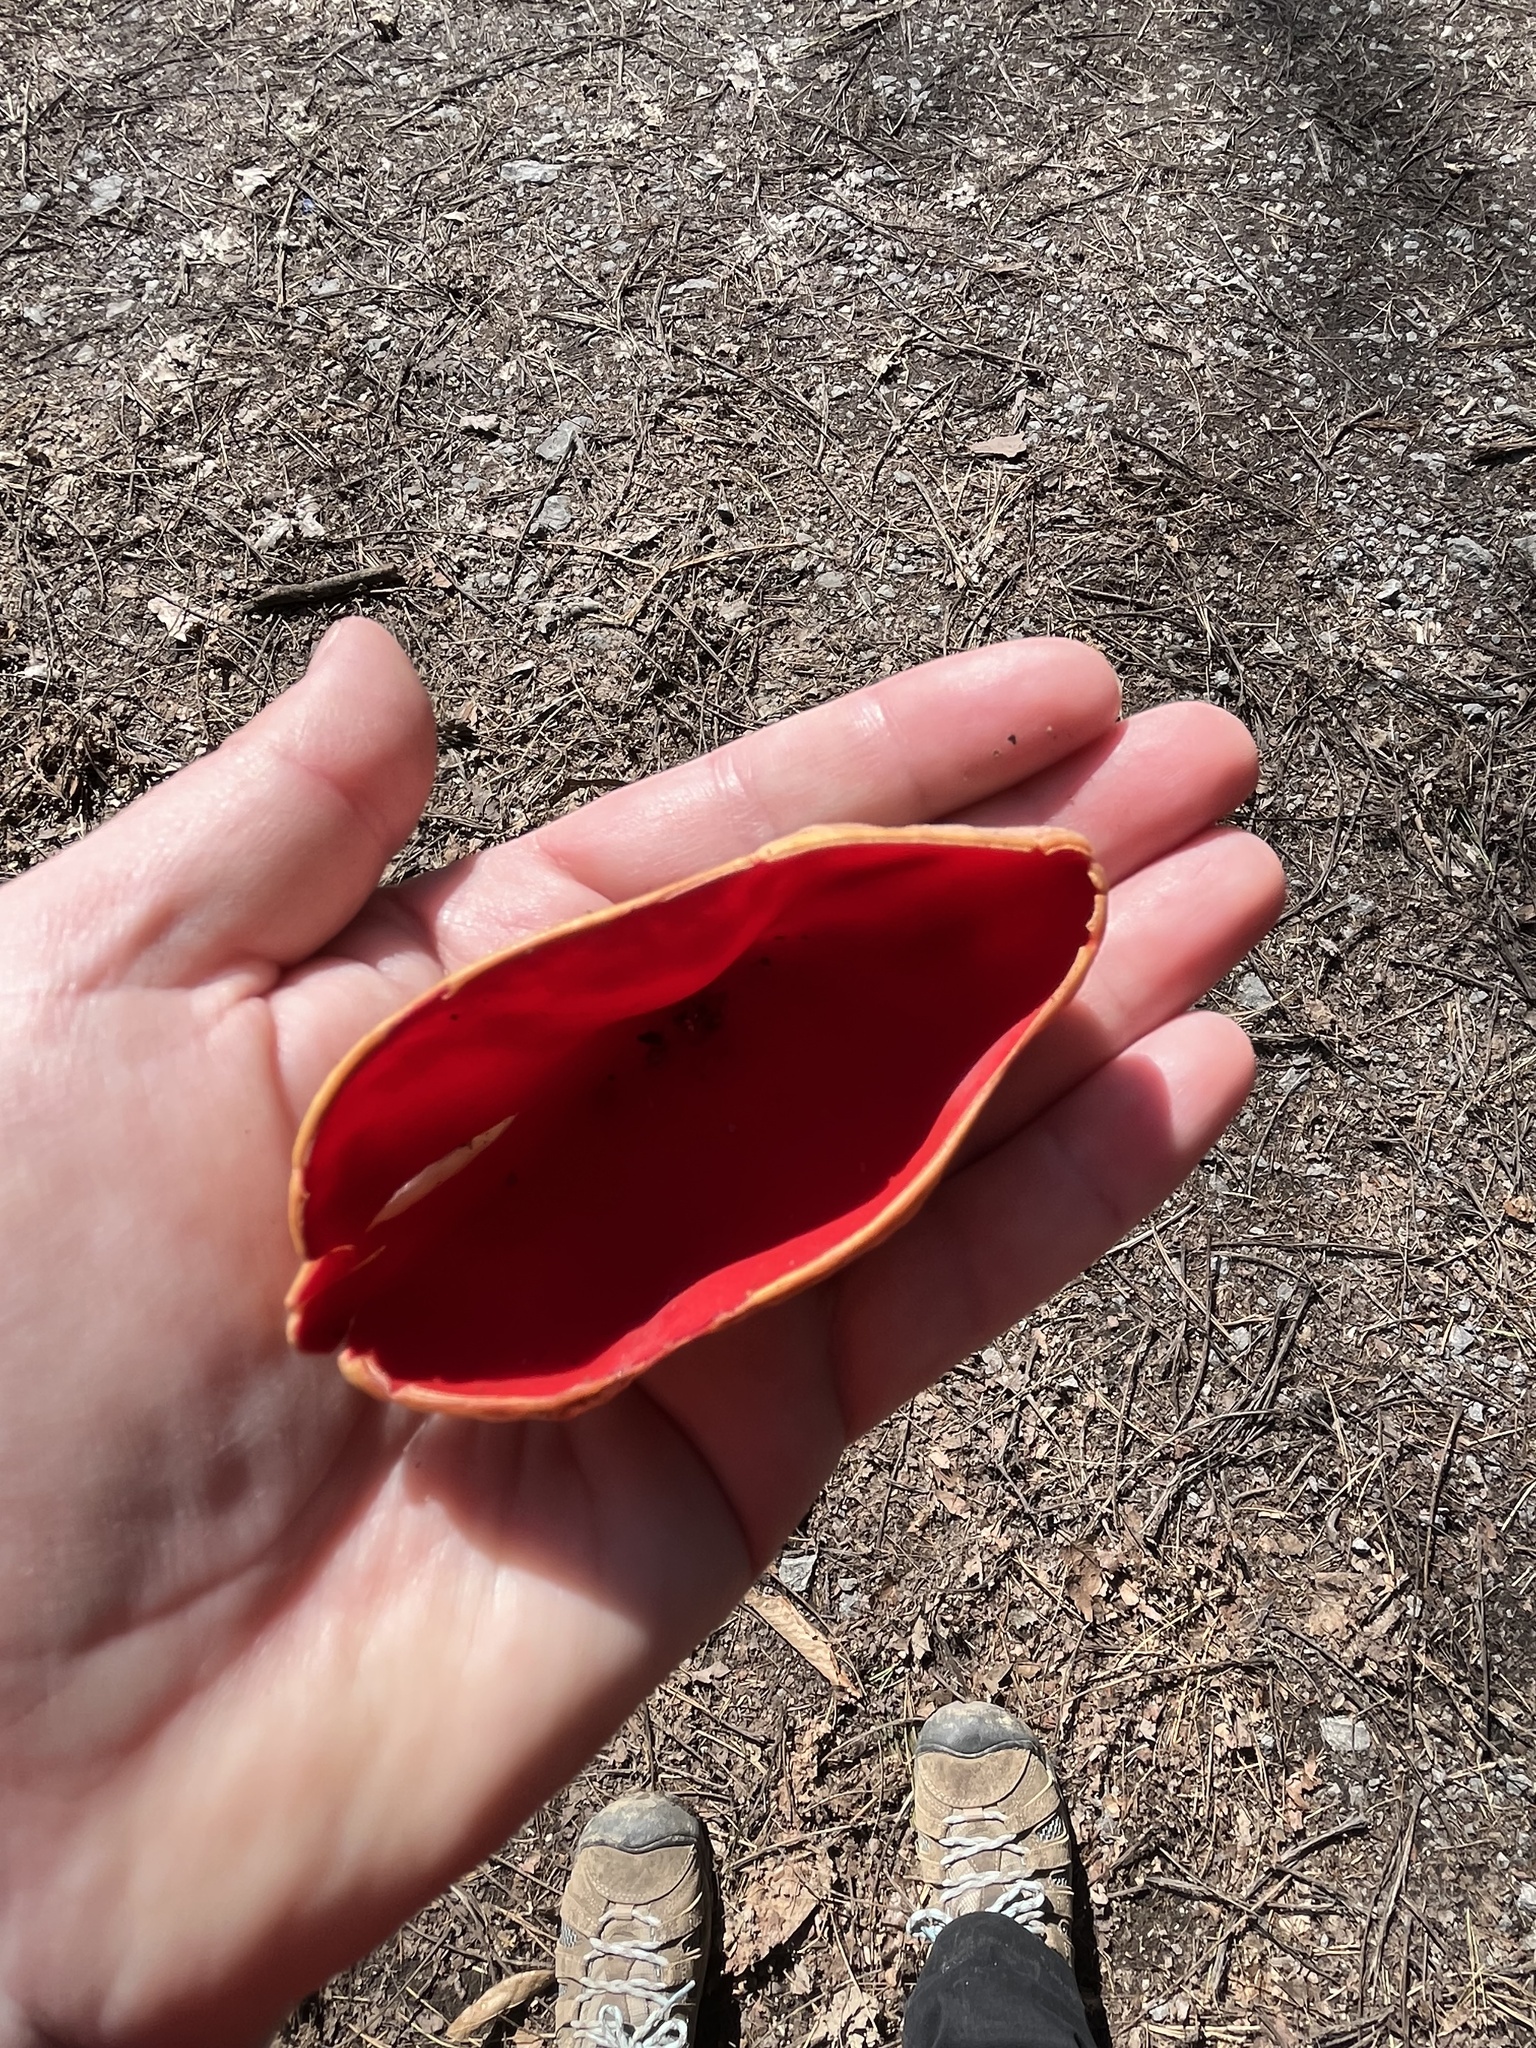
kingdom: Fungi
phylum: Ascomycota
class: Pezizomycetes
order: Pezizales
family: Sarcoscyphaceae
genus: Sarcoscypha
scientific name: Sarcoscypha austriaca
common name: Scarlet elfcup
